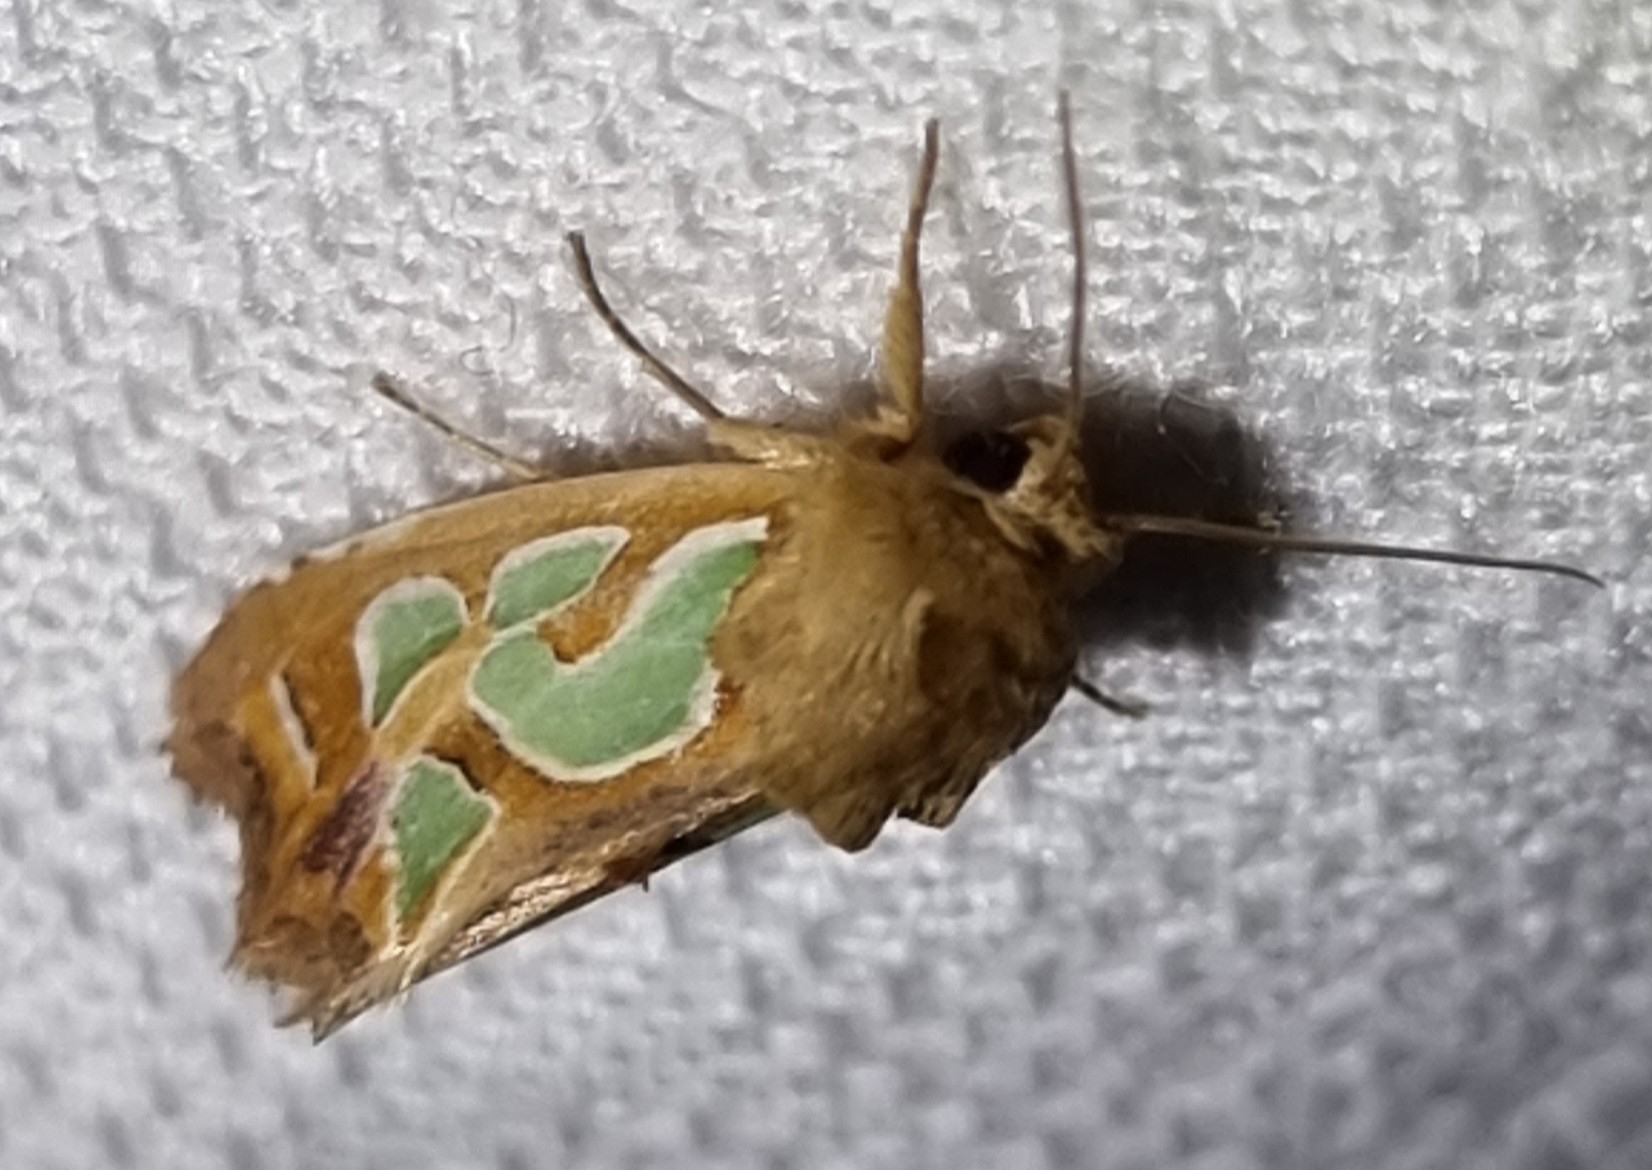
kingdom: Animalia
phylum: Arthropoda
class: Insecta
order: Lepidoptera
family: Noctuidae
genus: Cosmodes
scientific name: Cosmodes elegans
